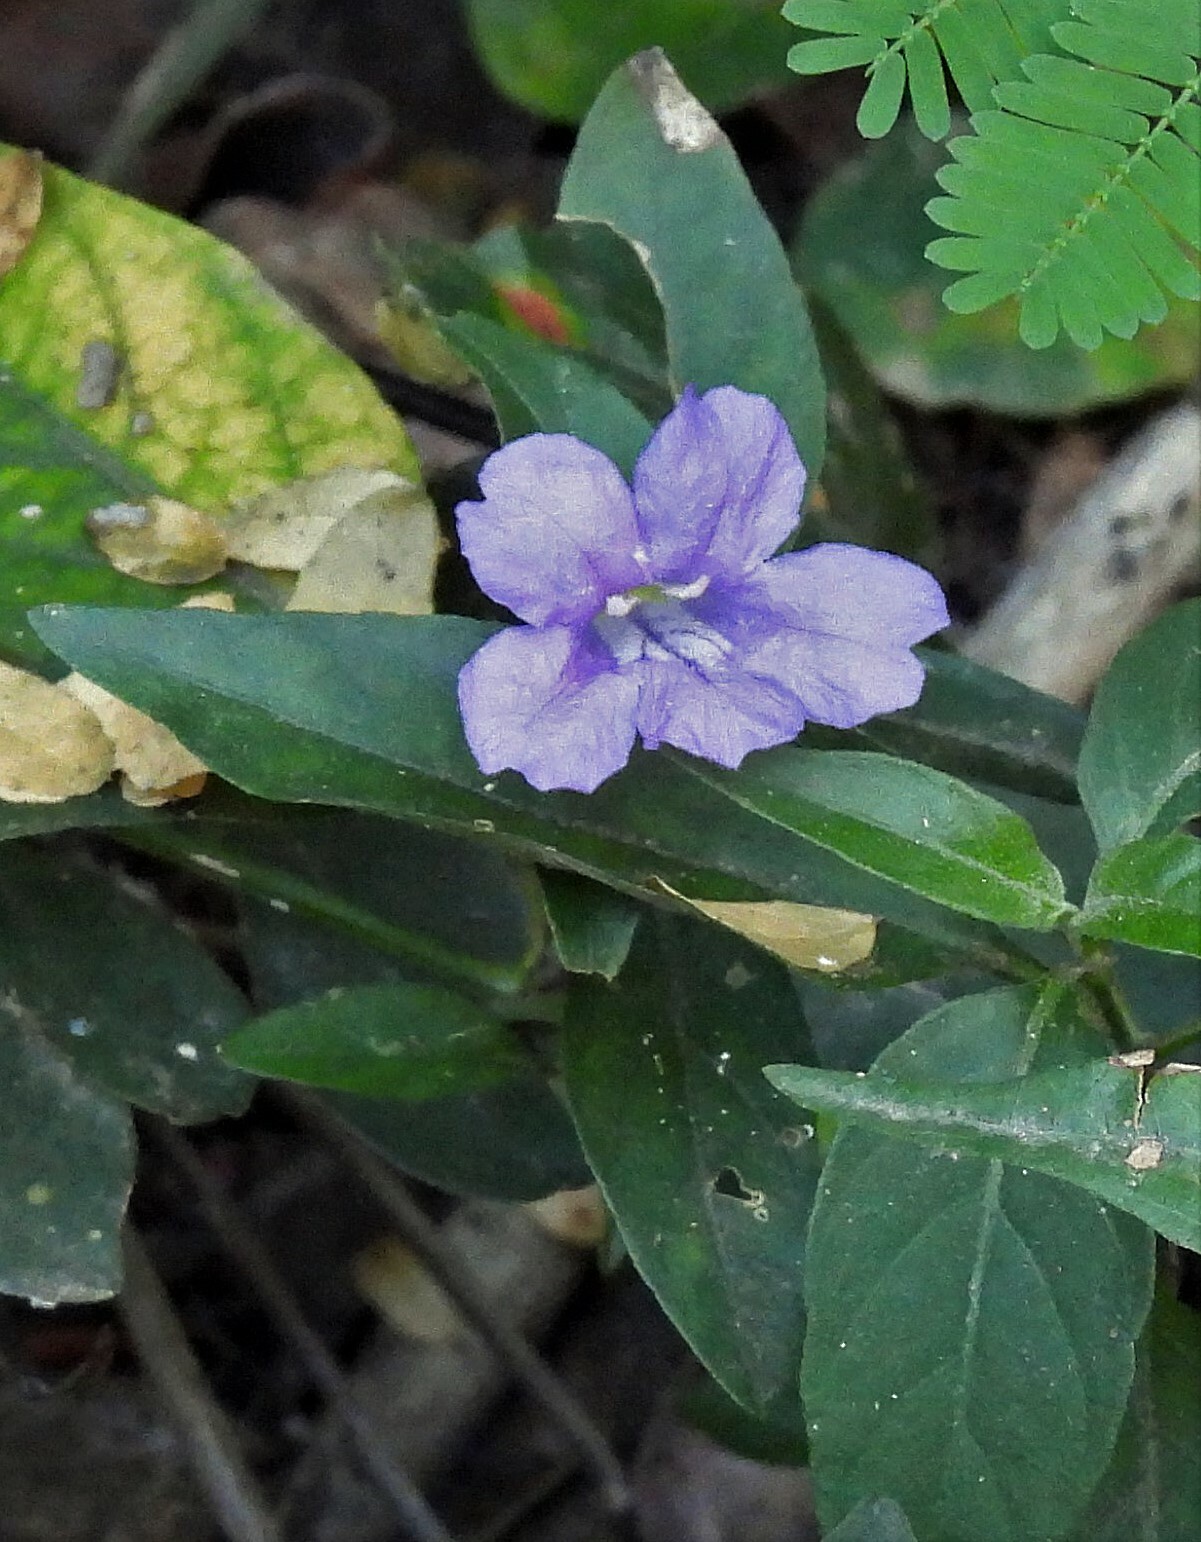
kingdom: Plantae
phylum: Tracheophyta
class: Magnoliopsida
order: Lamiales
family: Acanthaceae
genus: Ruellia
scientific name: Ruellia erythropus
